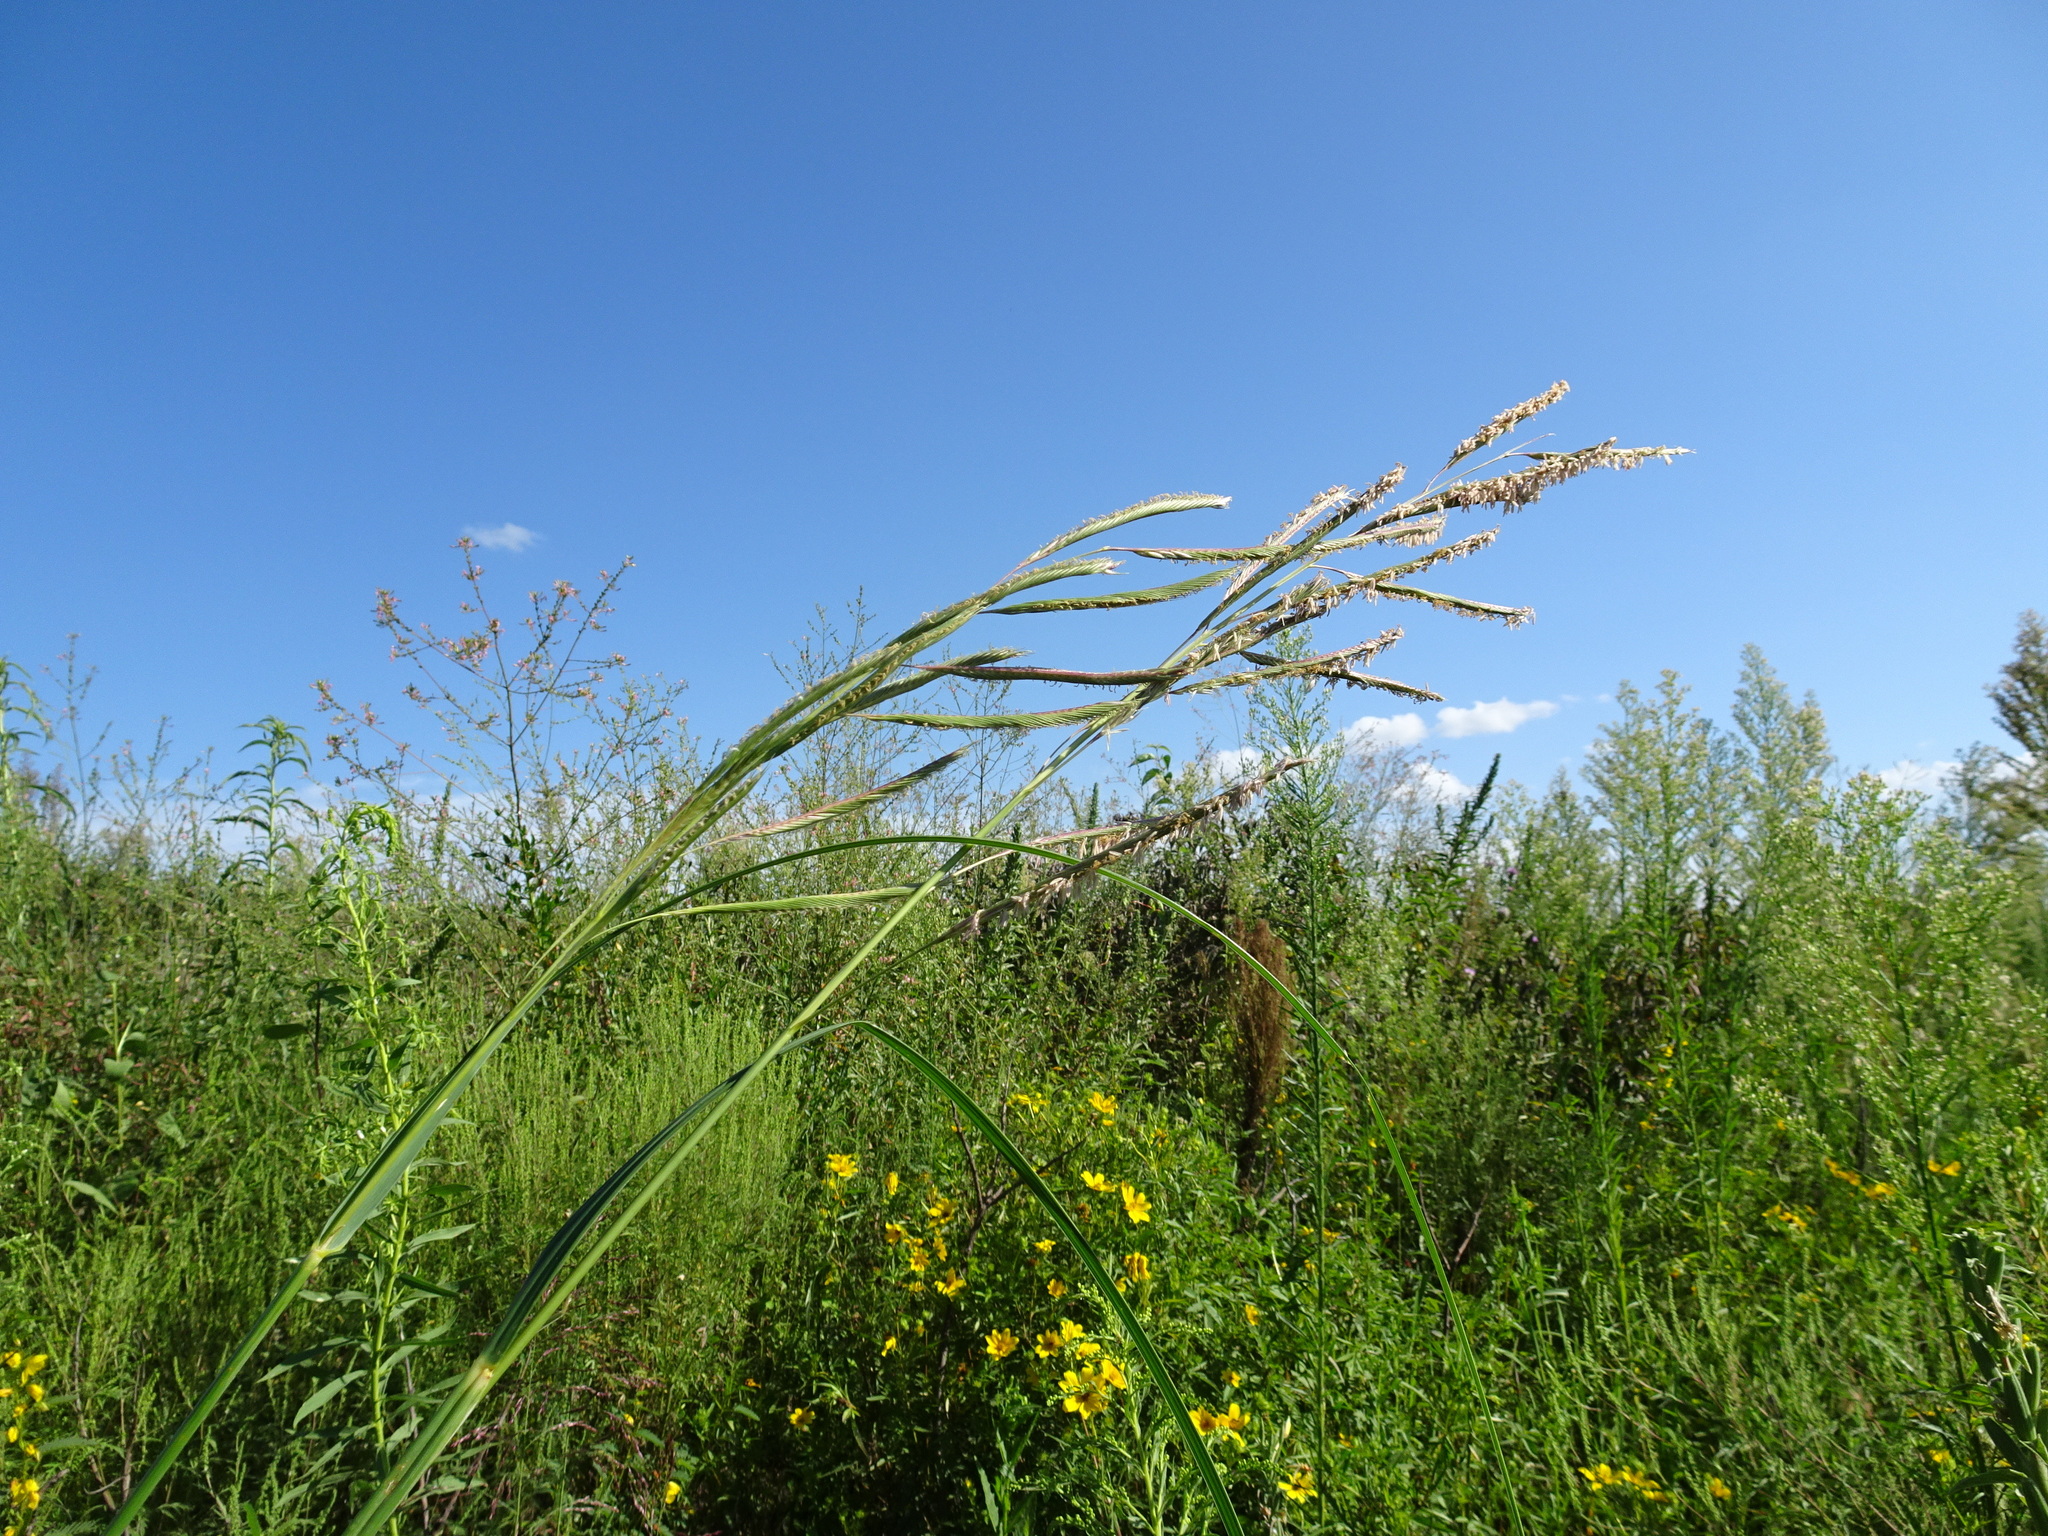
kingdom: Plantae
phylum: Tracheophyta
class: Liliopsida
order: Poales
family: Poaceae
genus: Sporobolus
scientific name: Sporobolus michauxianus
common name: Freshwater cordgrass
